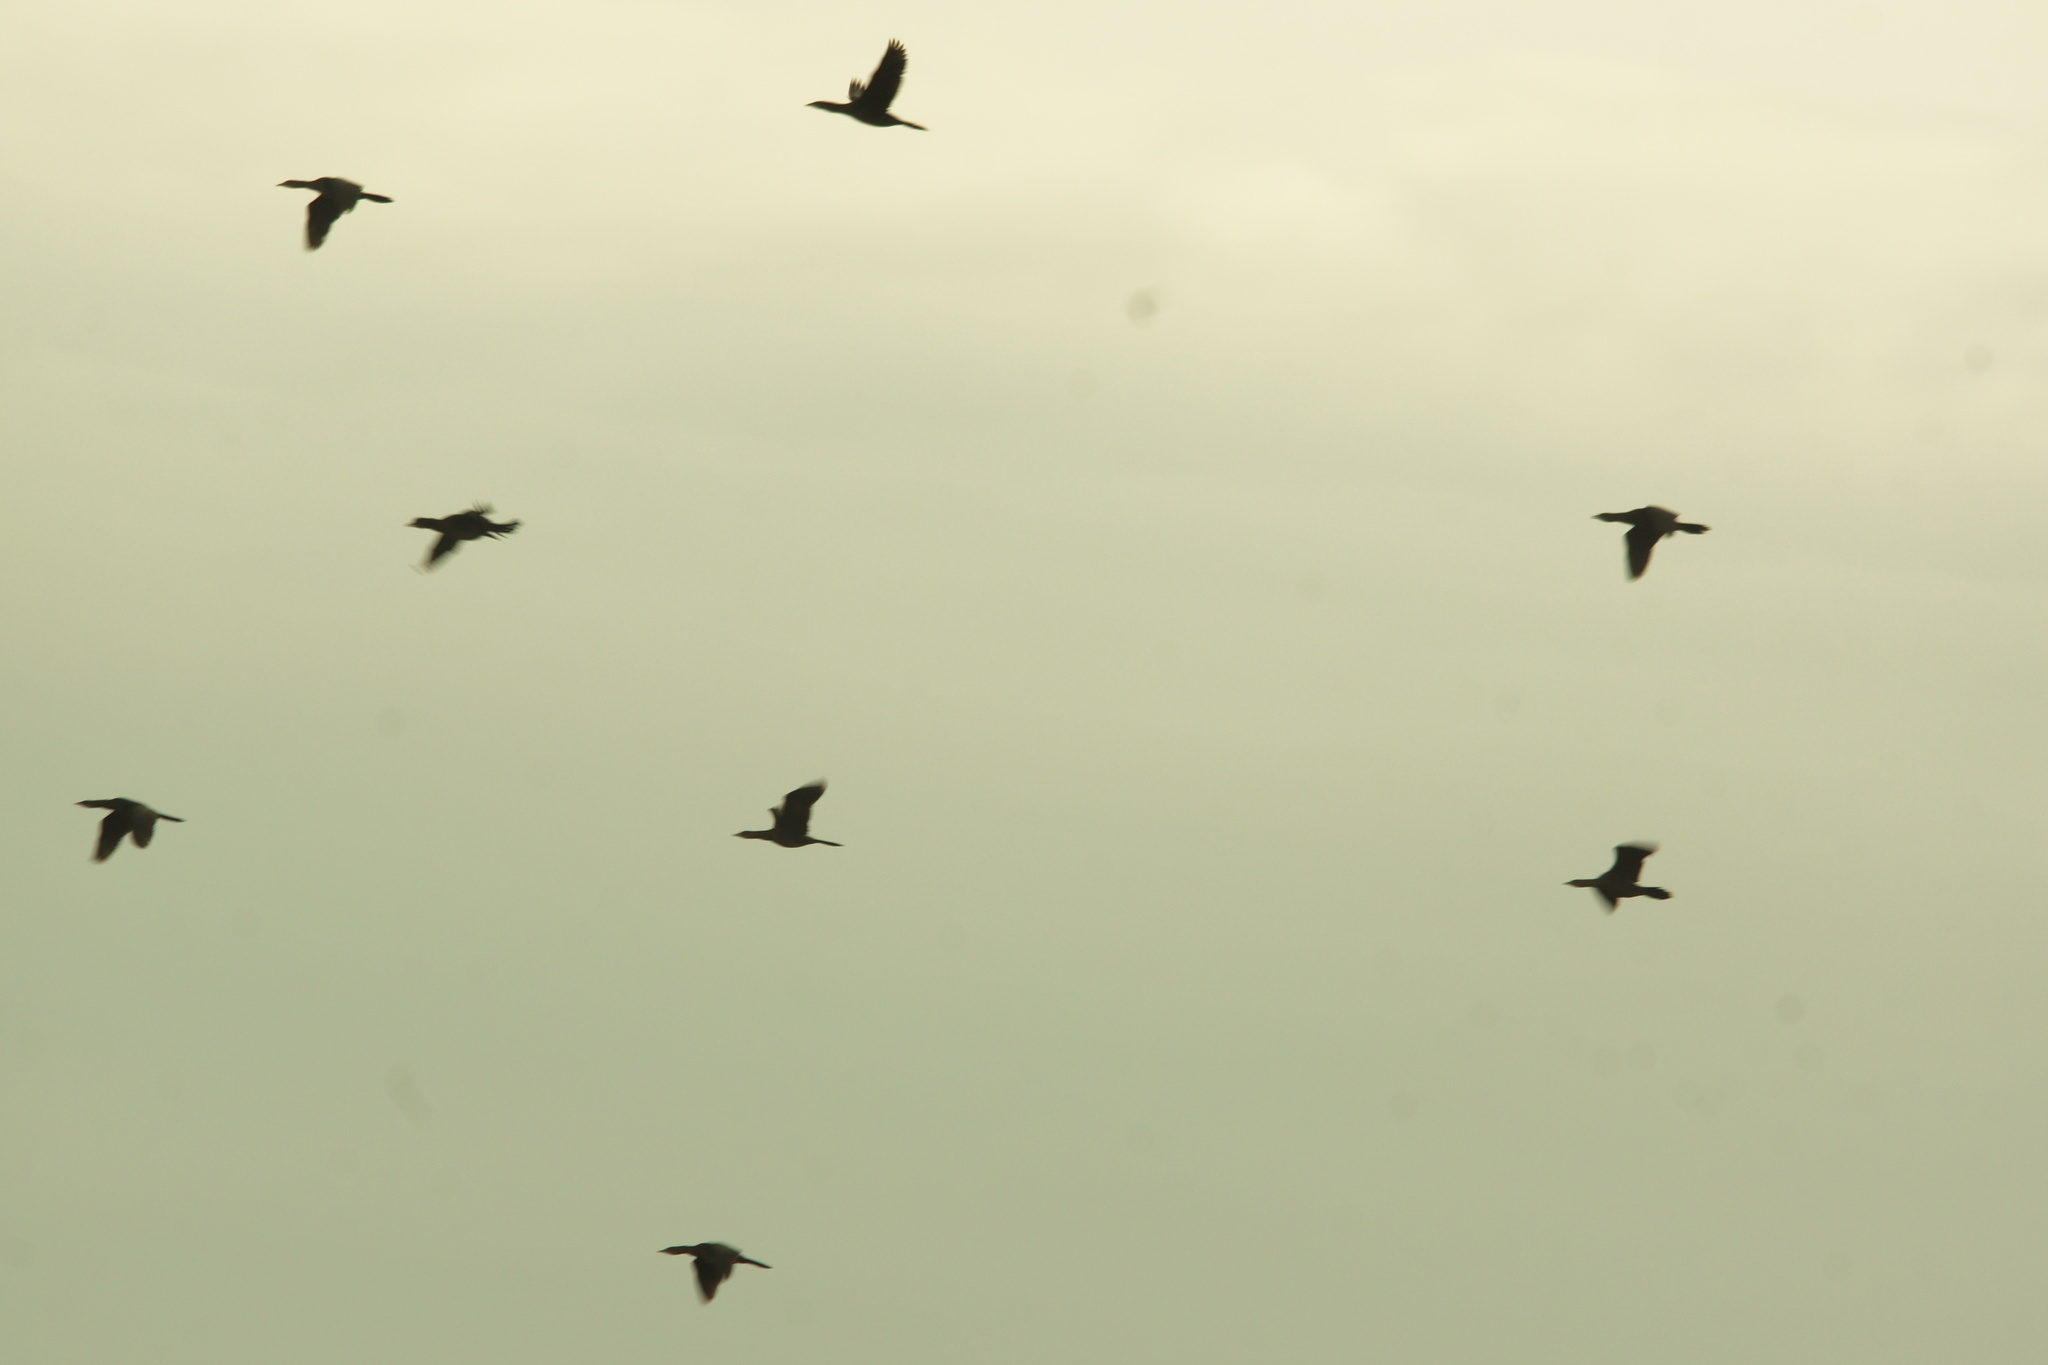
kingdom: Animalia
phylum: Chordata
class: Aves
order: Suliformes
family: Phalacrocoracidae
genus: Microcarbo
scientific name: Microcarbo pygmaeus
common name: Pygmy cormorant
